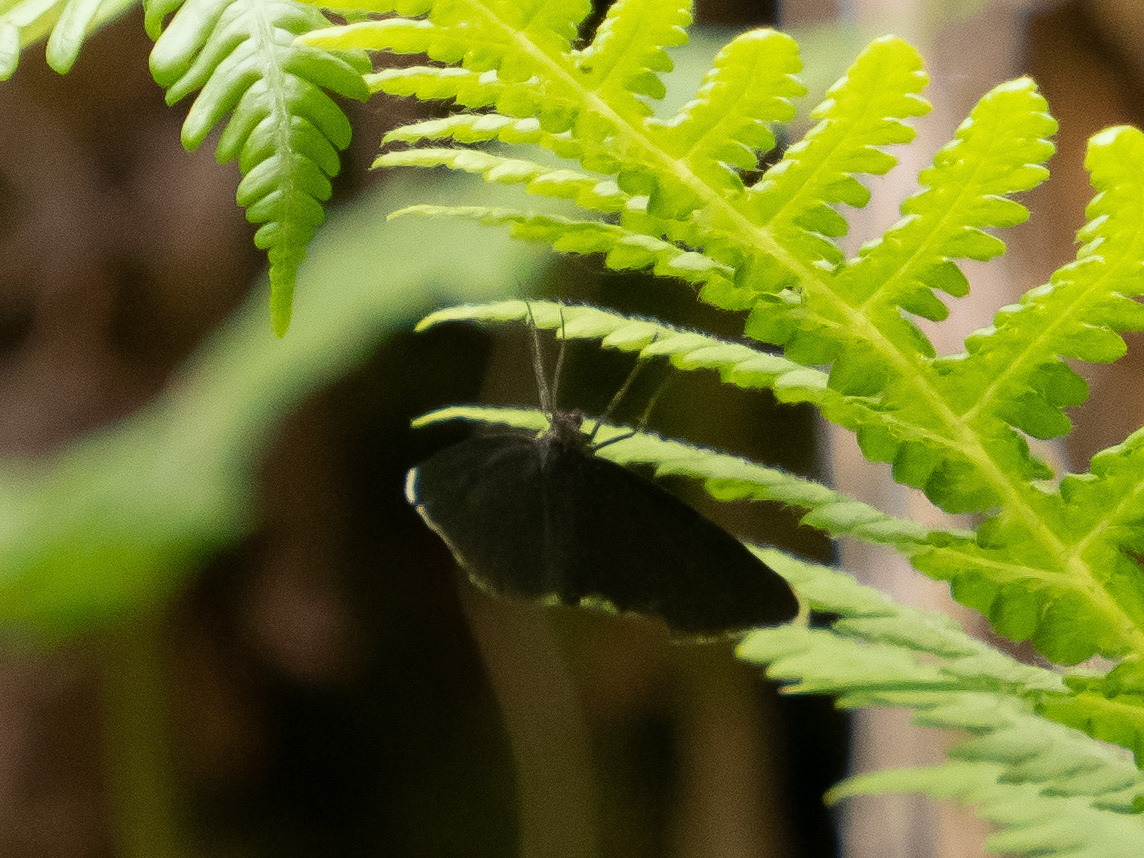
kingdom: Animalia
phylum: Arthropoda
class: Insecta
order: Lepidoptera
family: Geometridae
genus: Odezia
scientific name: Odezia atrata
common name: Chimney sweeper
